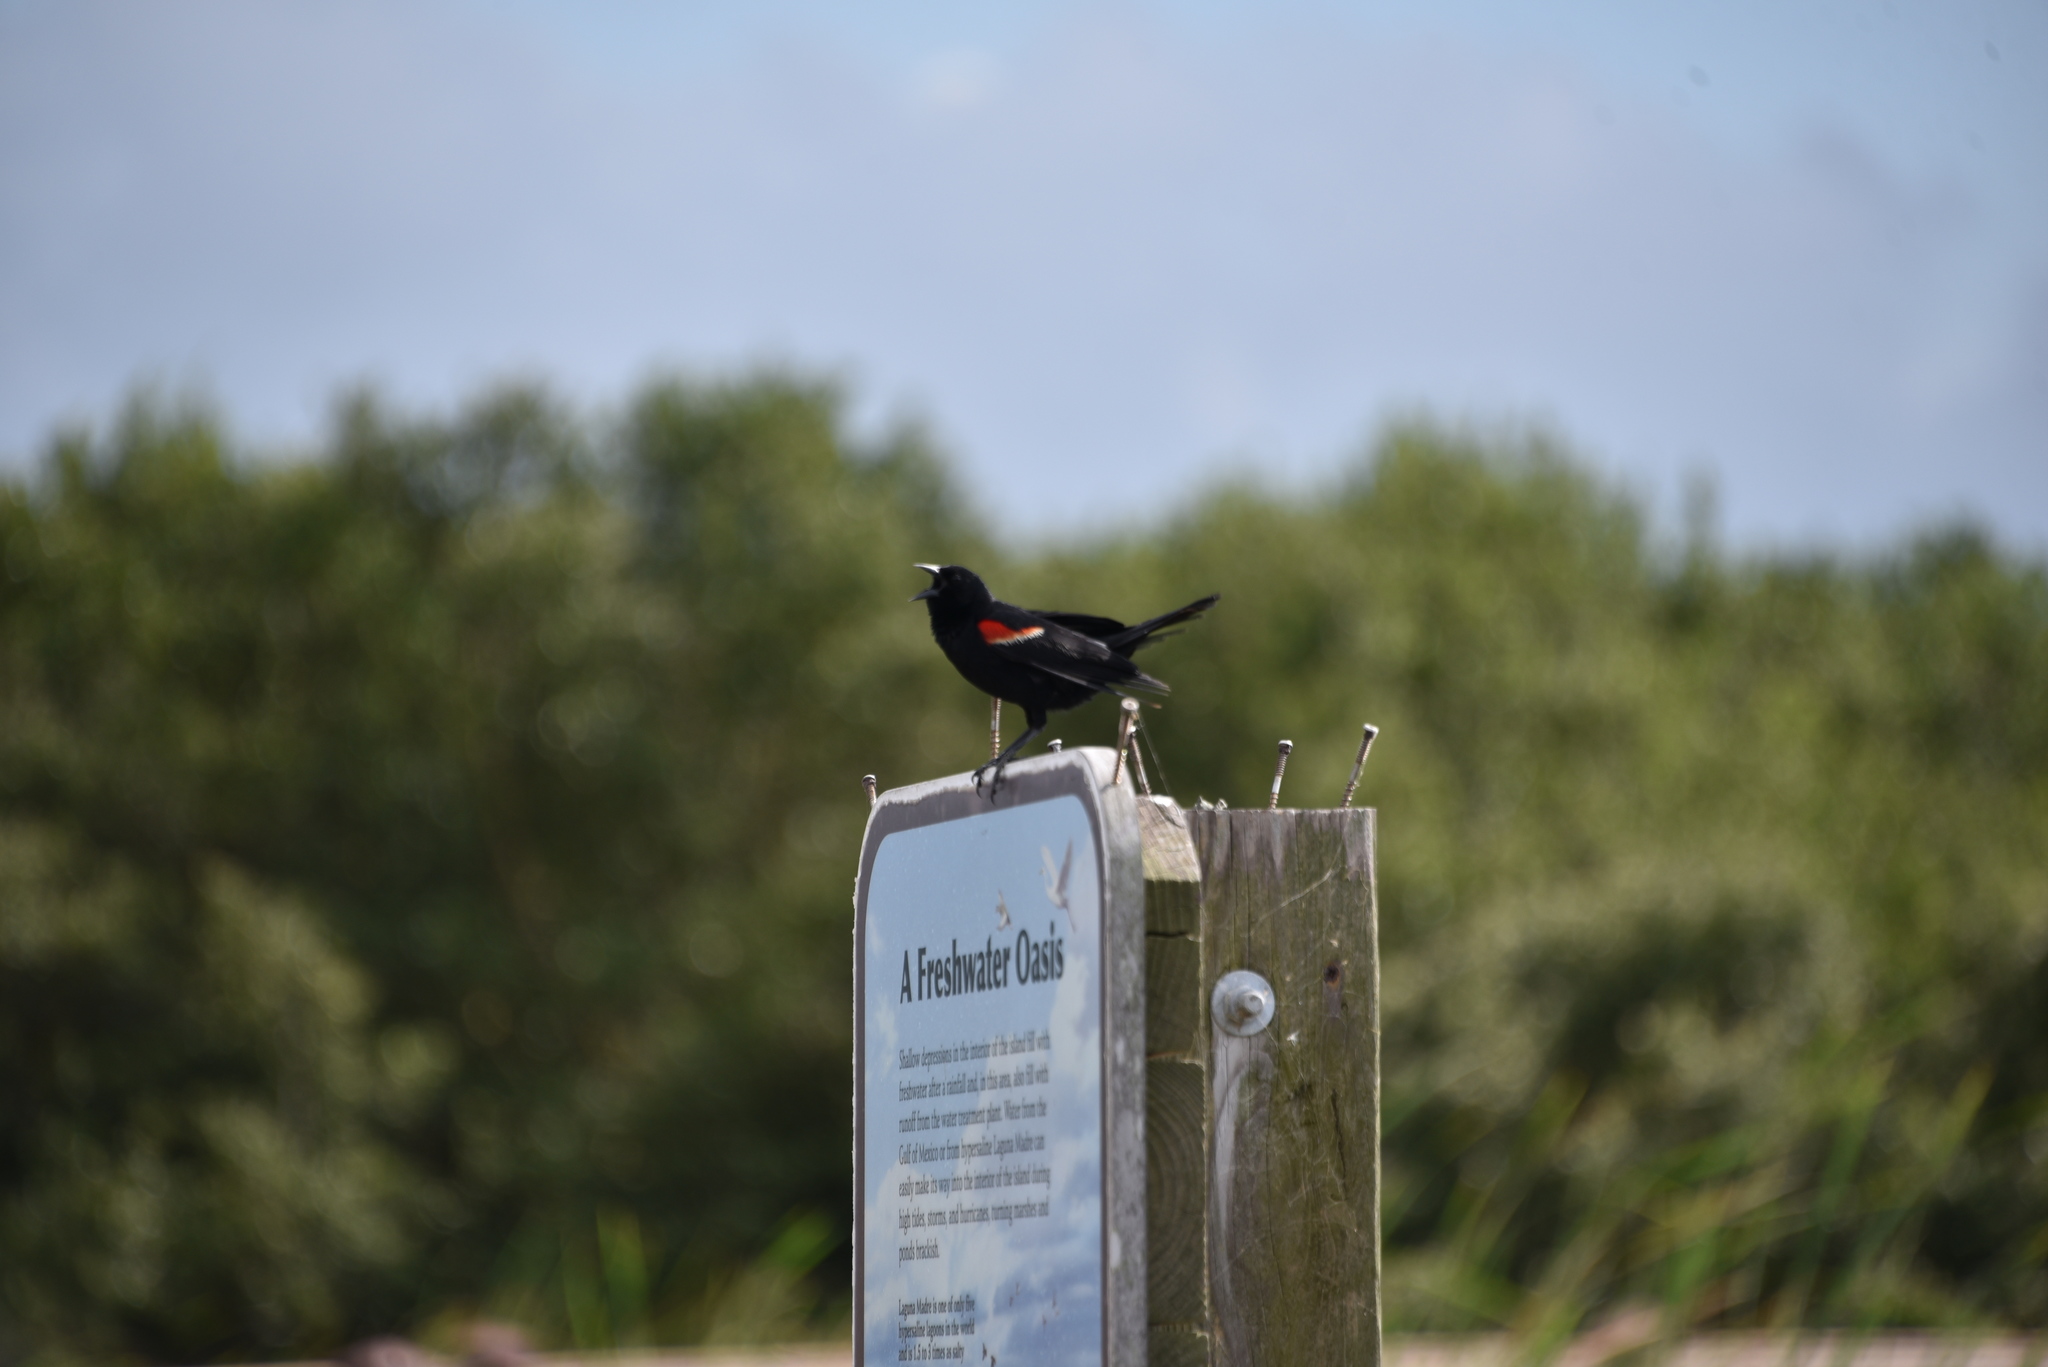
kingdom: Animalia
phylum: Chordata
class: Aves
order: Passeriformes
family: Icteridae
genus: Agelaius
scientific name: Agelaius phoeniceus
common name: Red-winged blackbird
